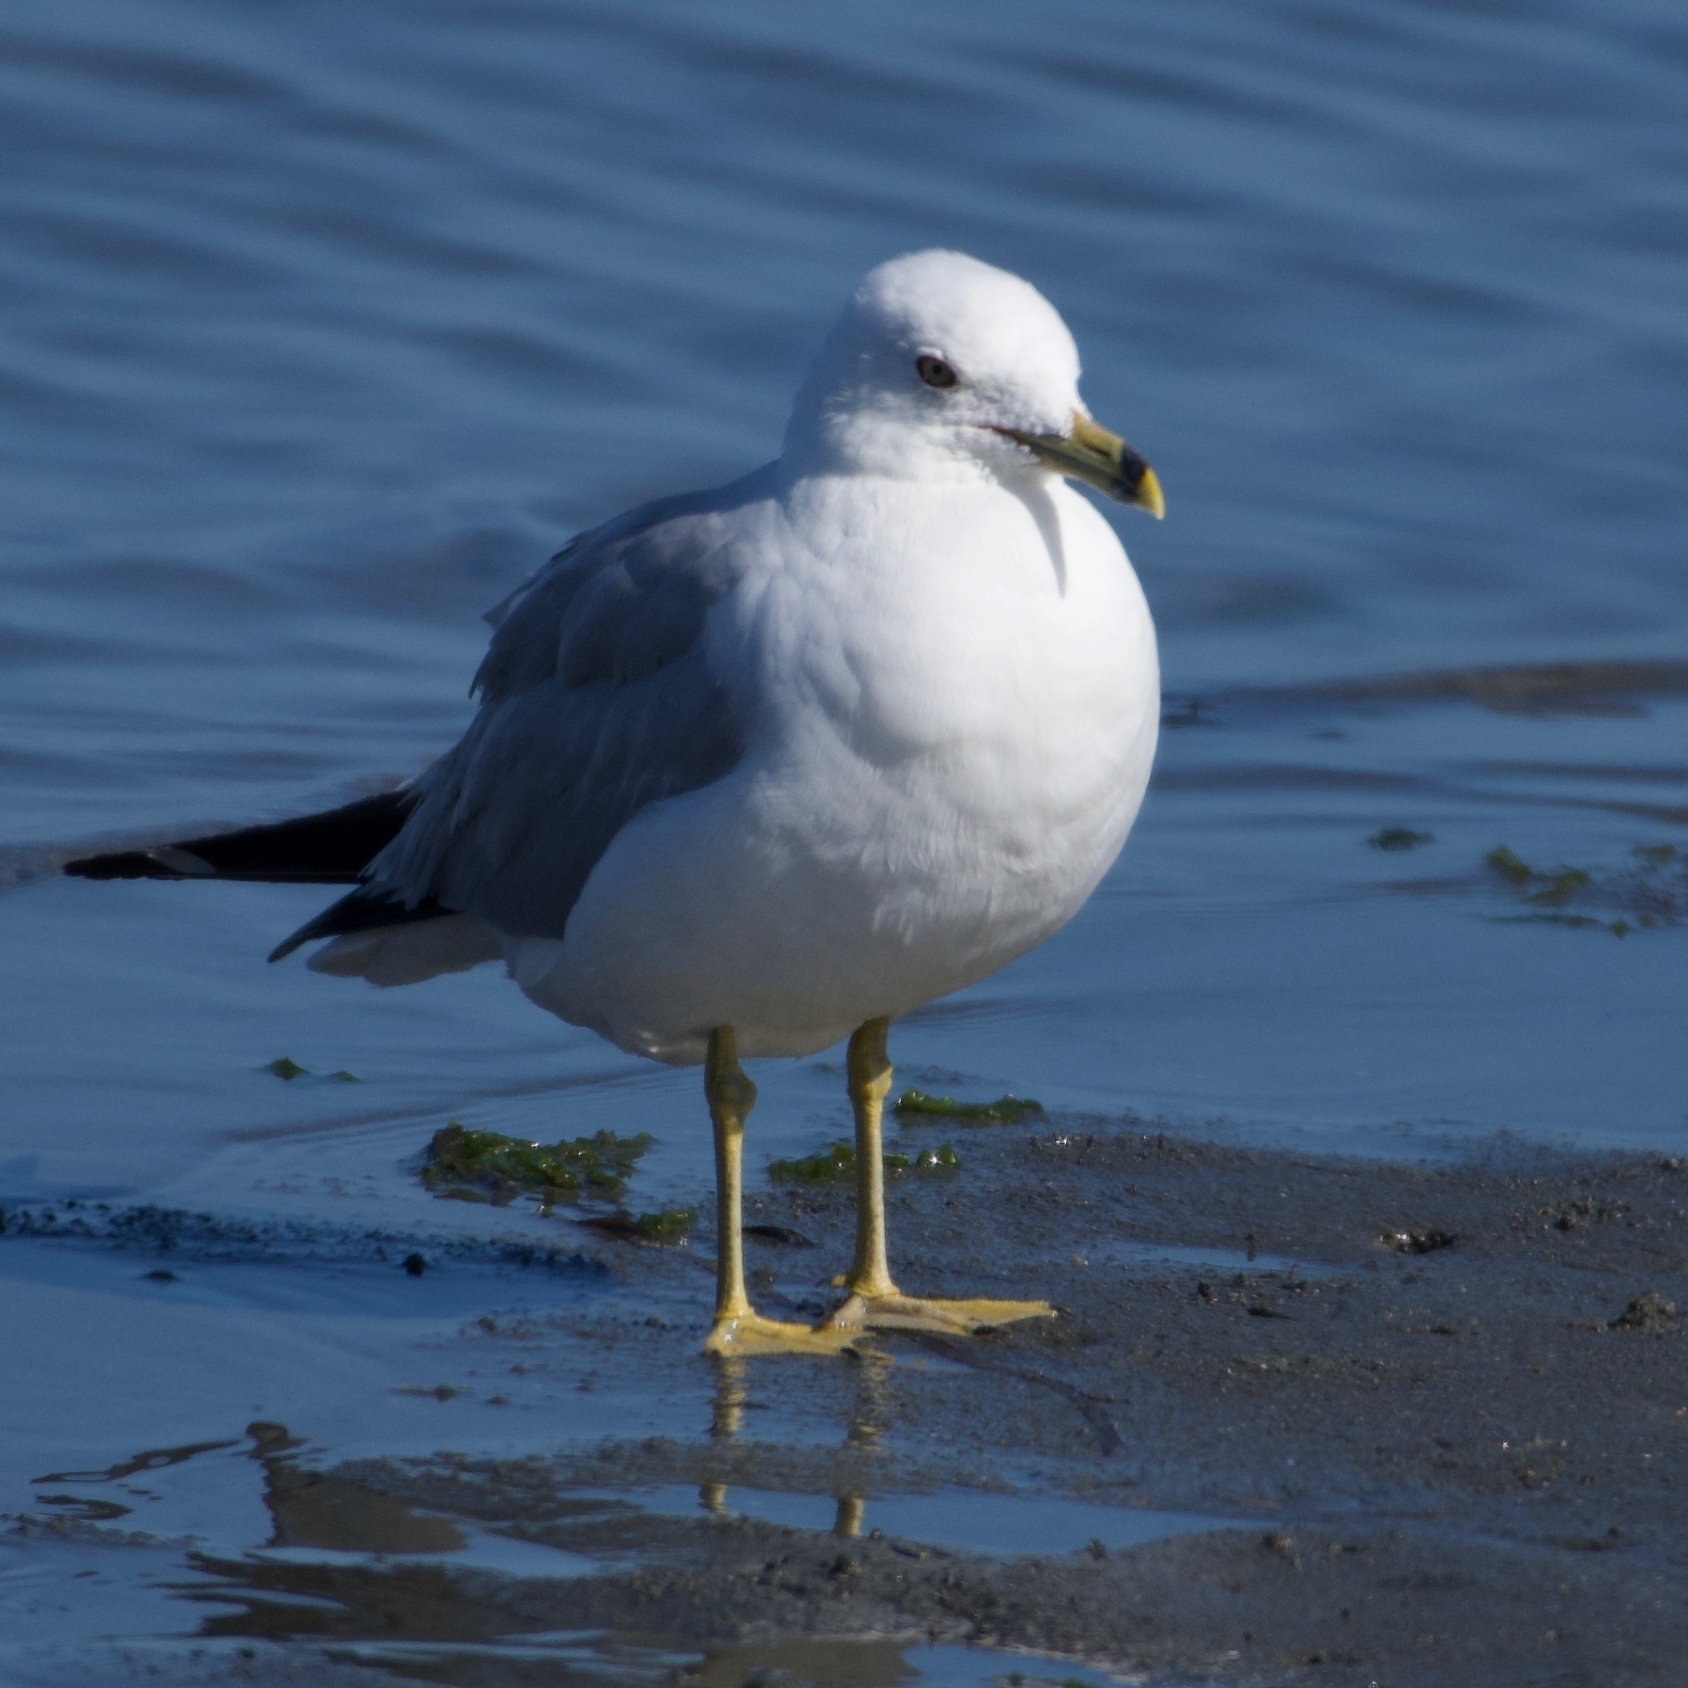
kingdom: Animalia
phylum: Chordata
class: Aves
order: Charadriiformes
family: Laridae
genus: Larus
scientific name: Larus delawarensis
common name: Ring-billed gull
